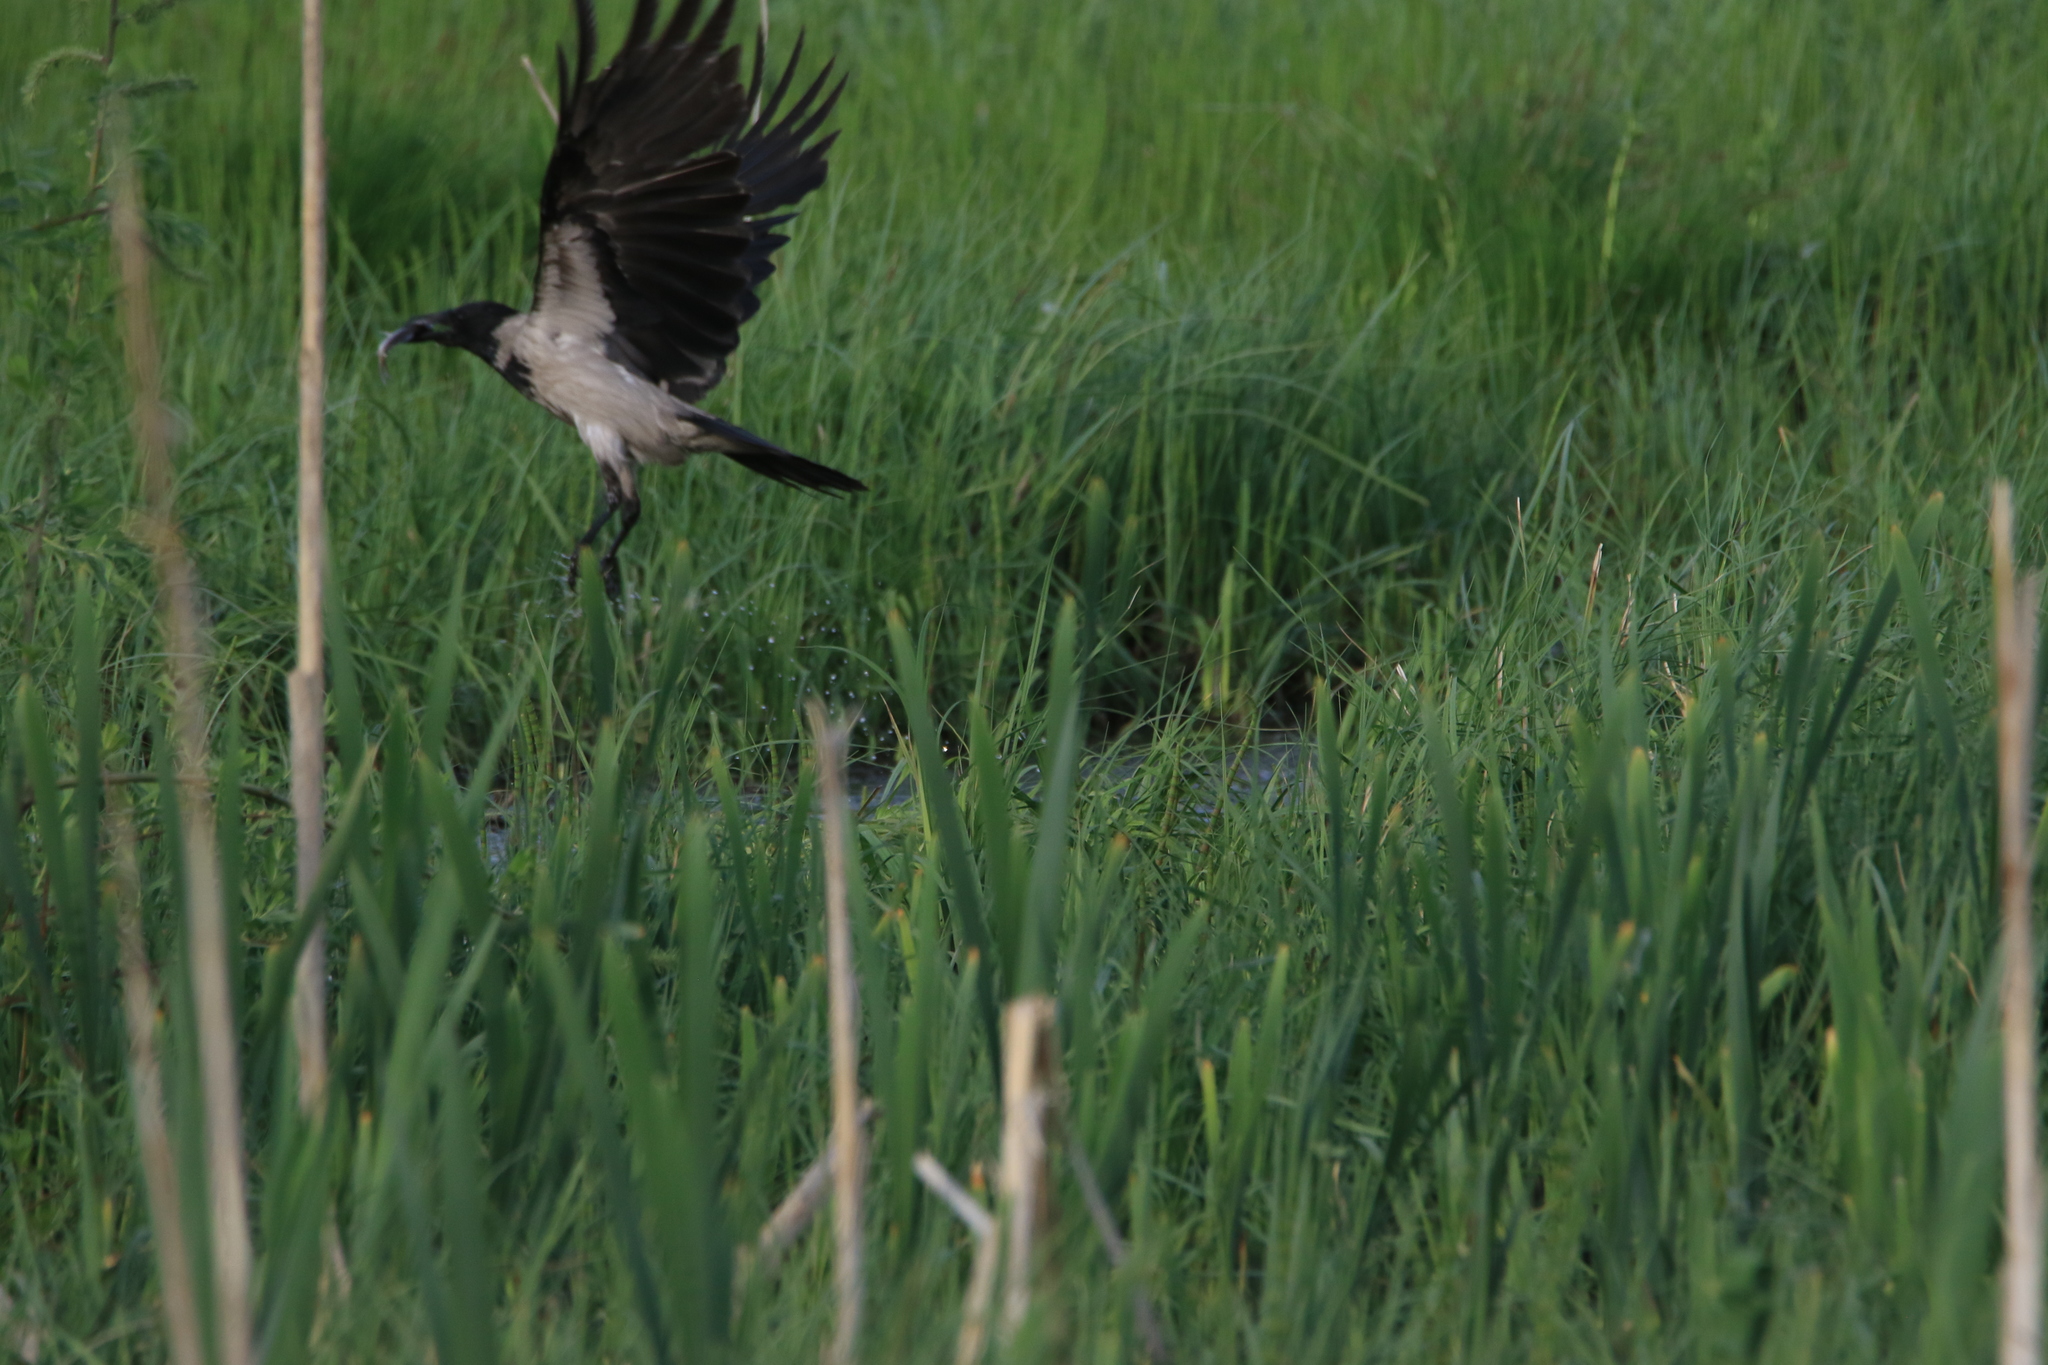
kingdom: Animalia
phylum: Chordata
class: Aves
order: Passeriformes
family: Corvidae
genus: Corvus
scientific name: Corvus cornix
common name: Hooded crow
